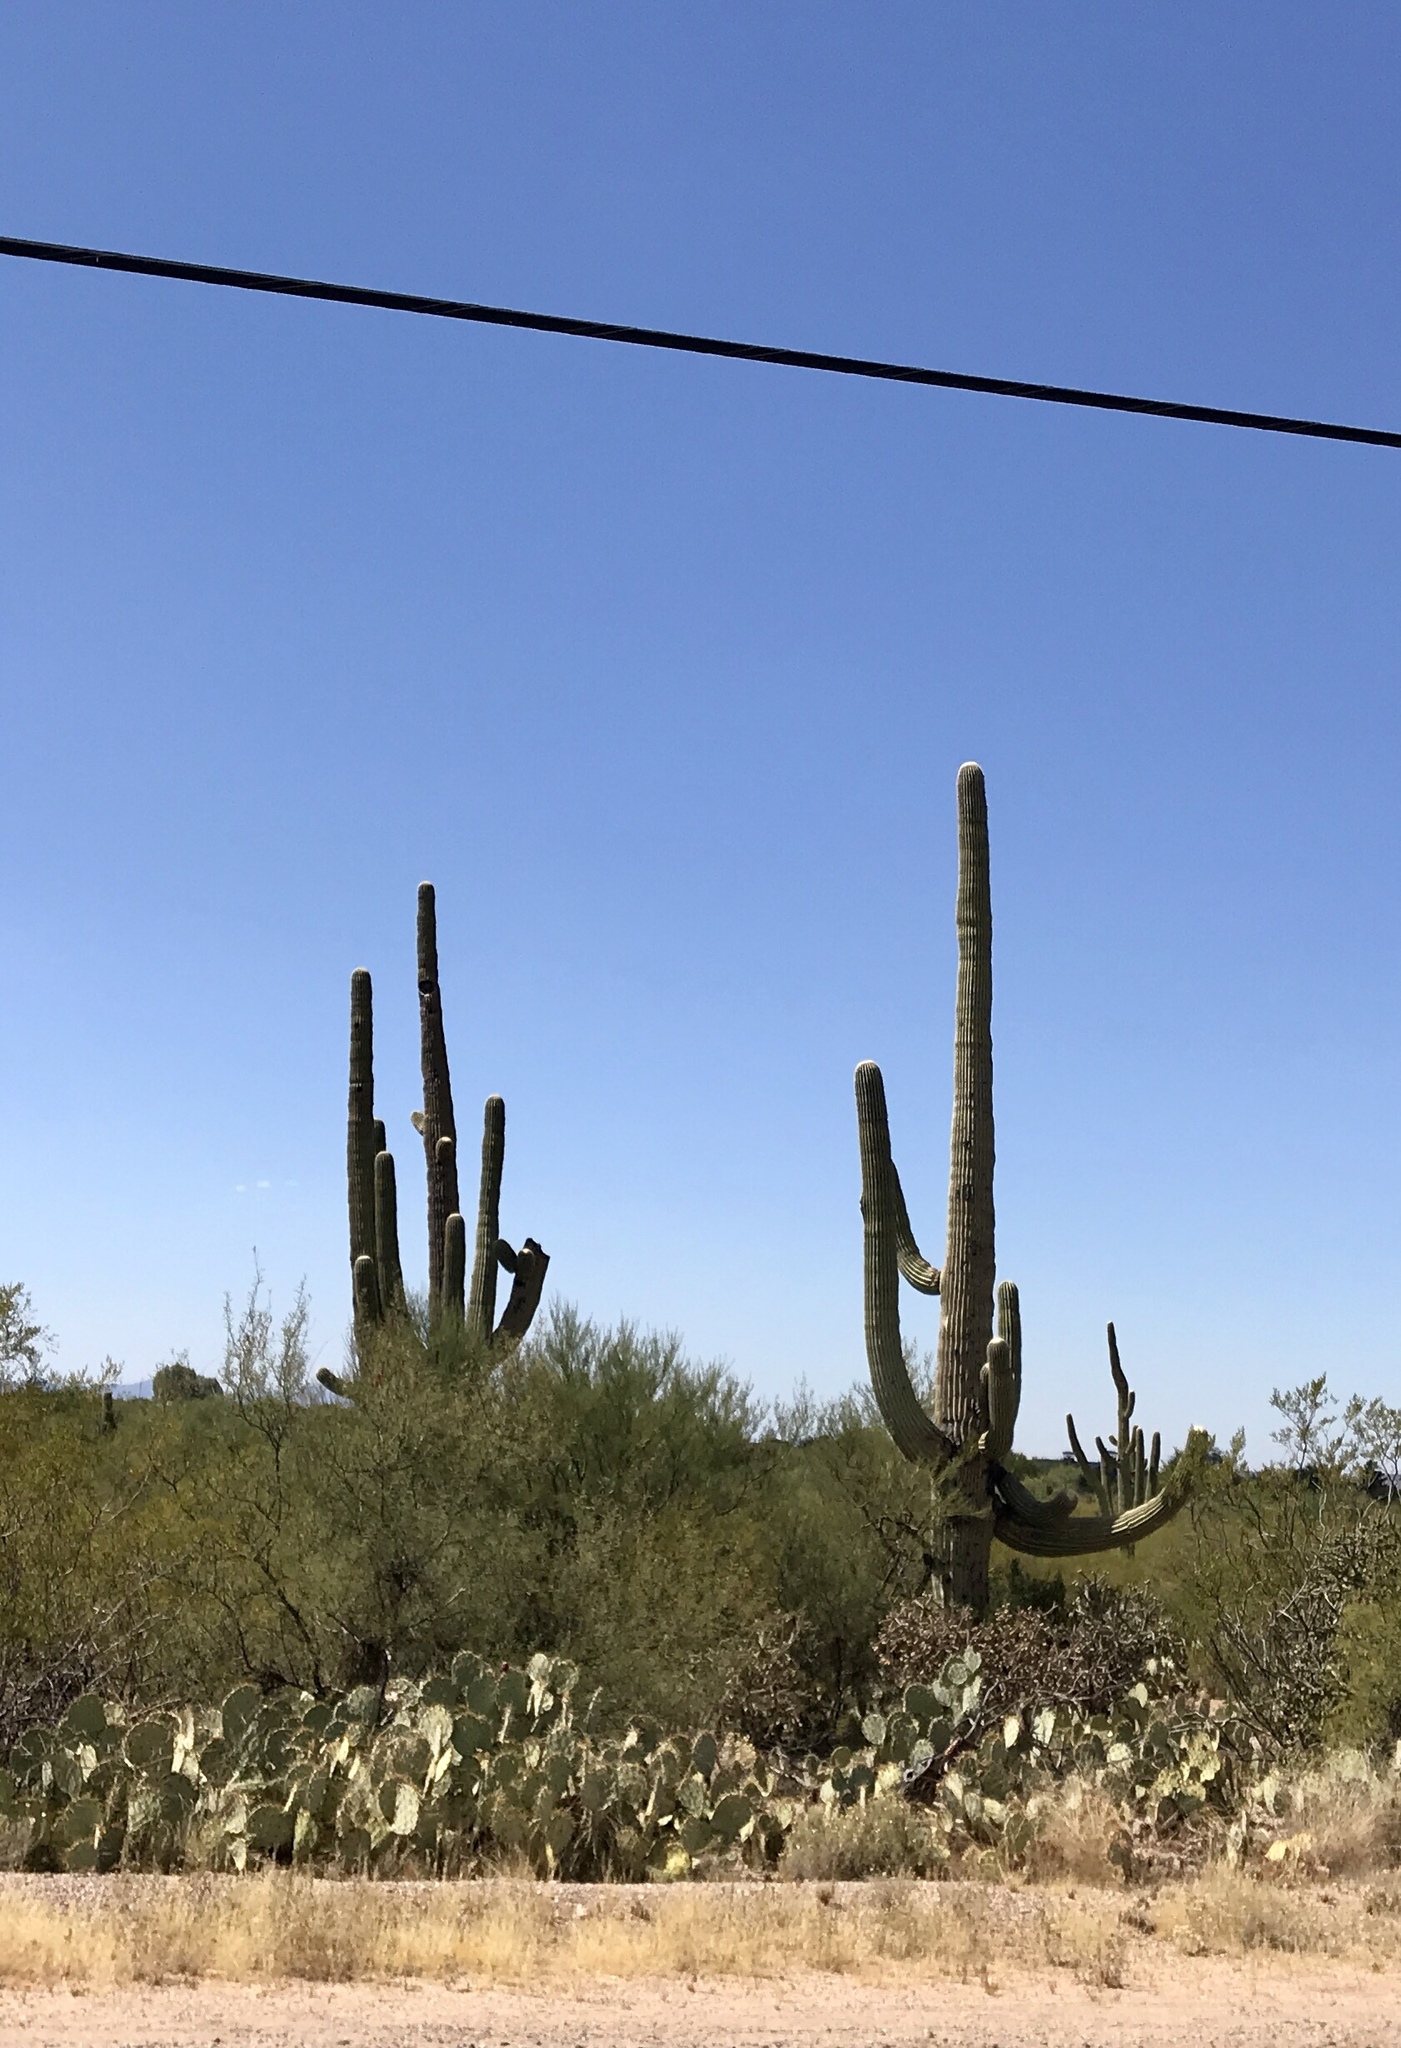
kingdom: Plantae
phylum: Tracheophyta
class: Magnoliopsida
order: Caryophyllales
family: Cactaceae
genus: Carnegiea
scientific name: Carnegiea gigantea
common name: Saguaro
